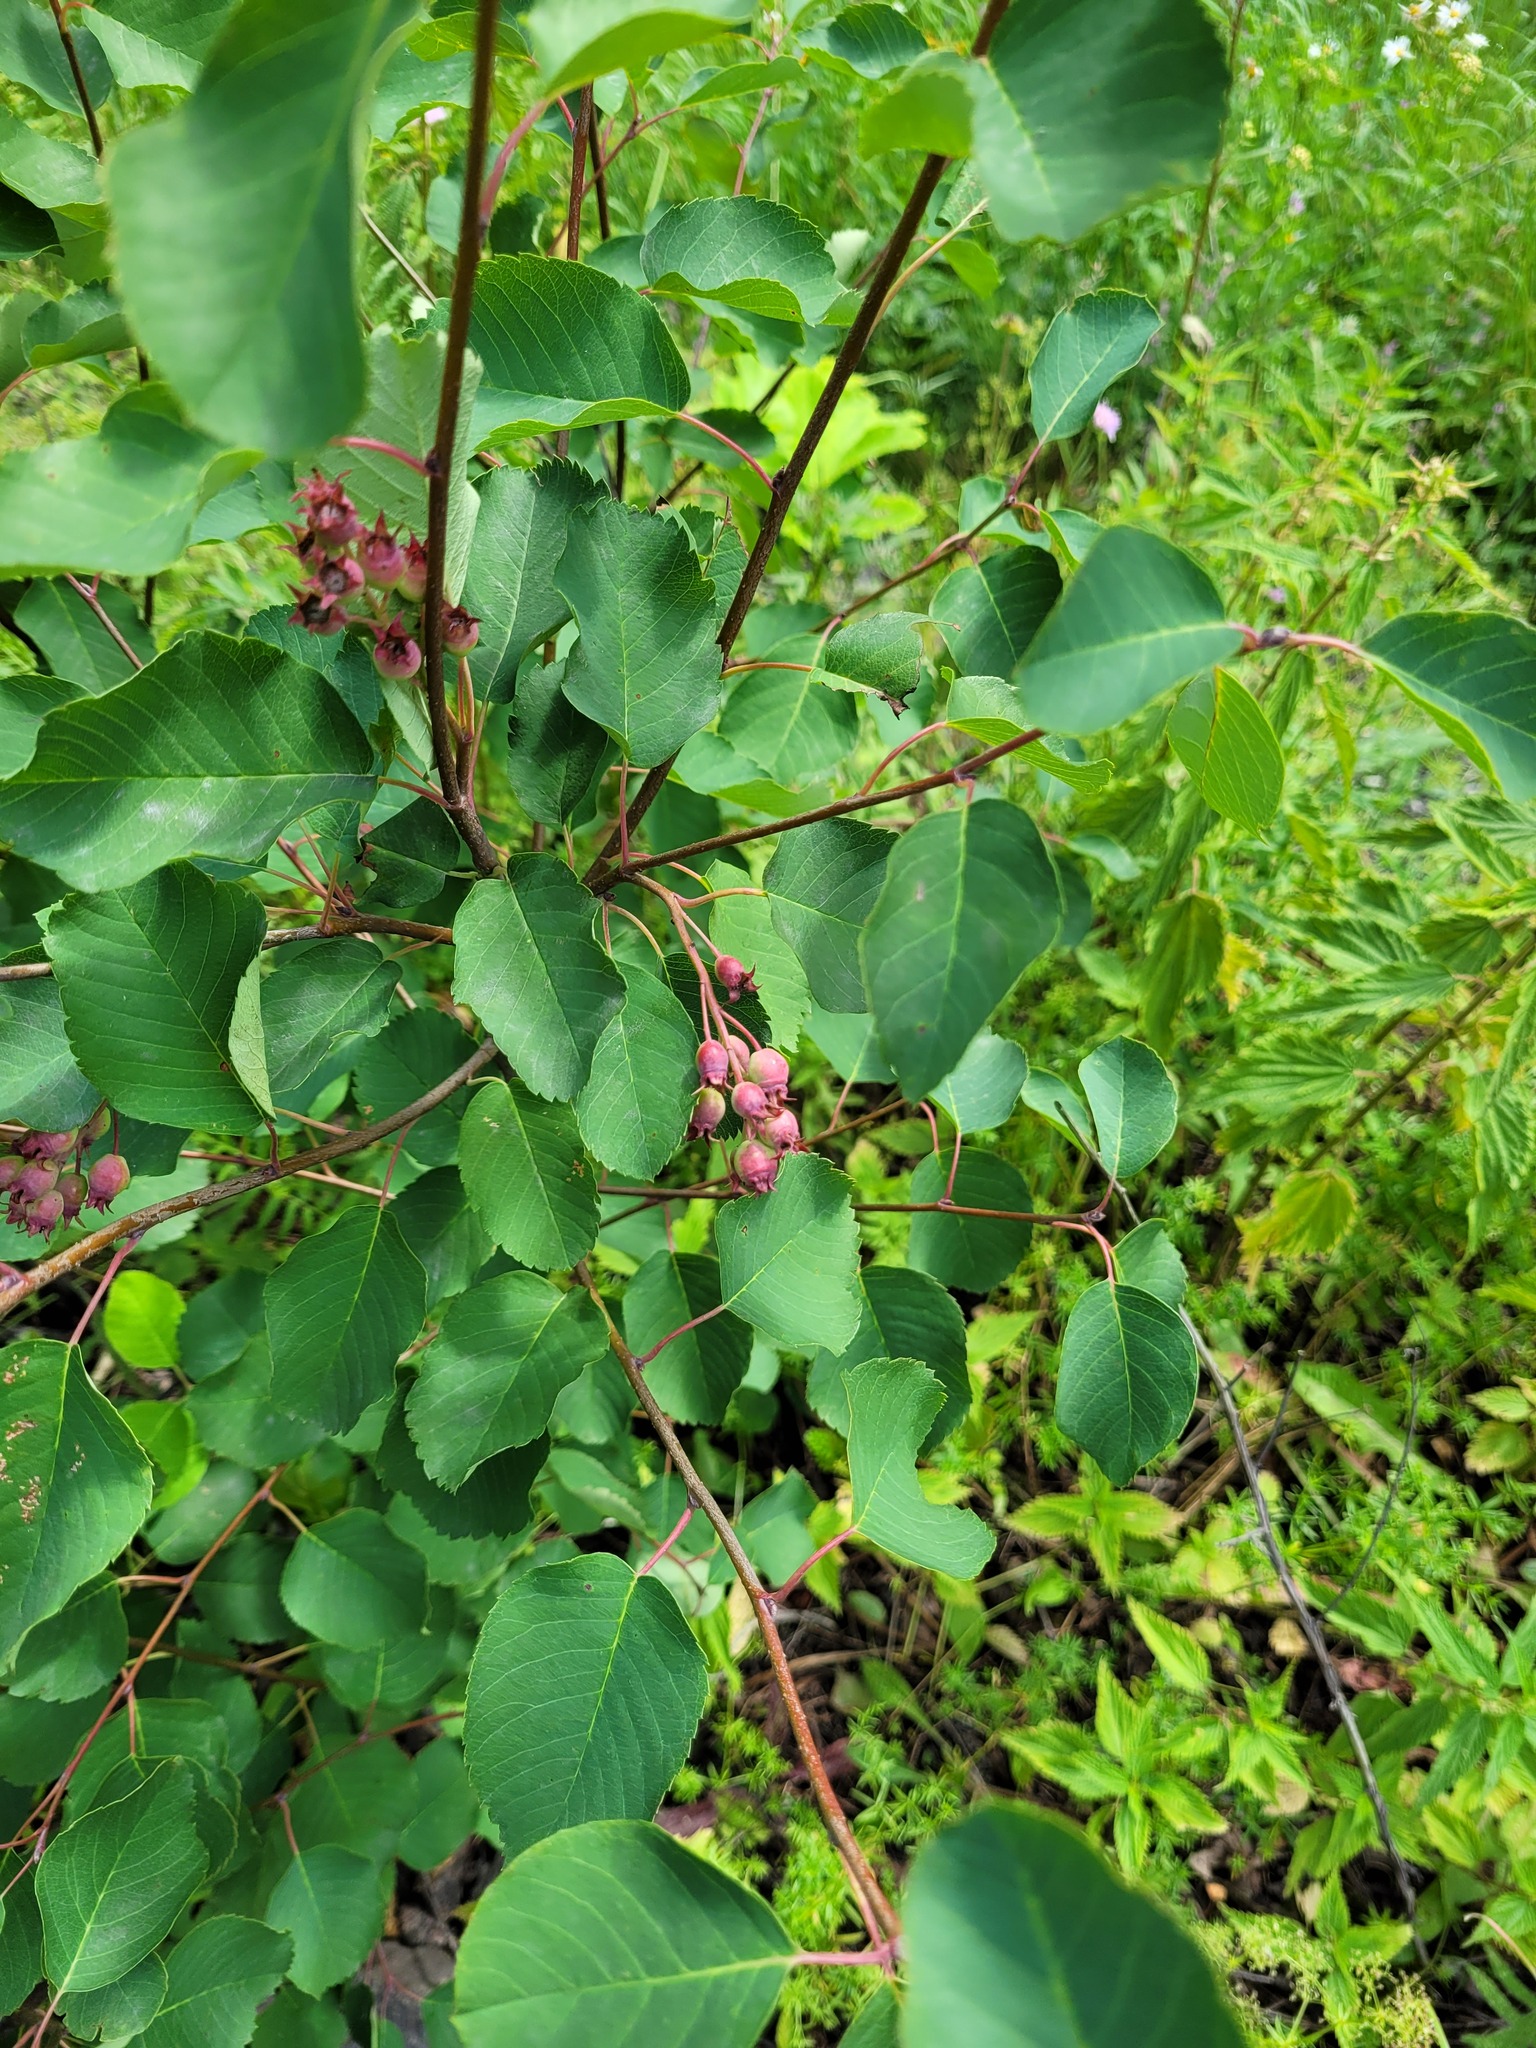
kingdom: Plantae
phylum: Tracheophyta
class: Magnoliopsida
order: Rosales
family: Rosaceae
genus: Amelanchier
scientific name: Amelanchier alnifolia
